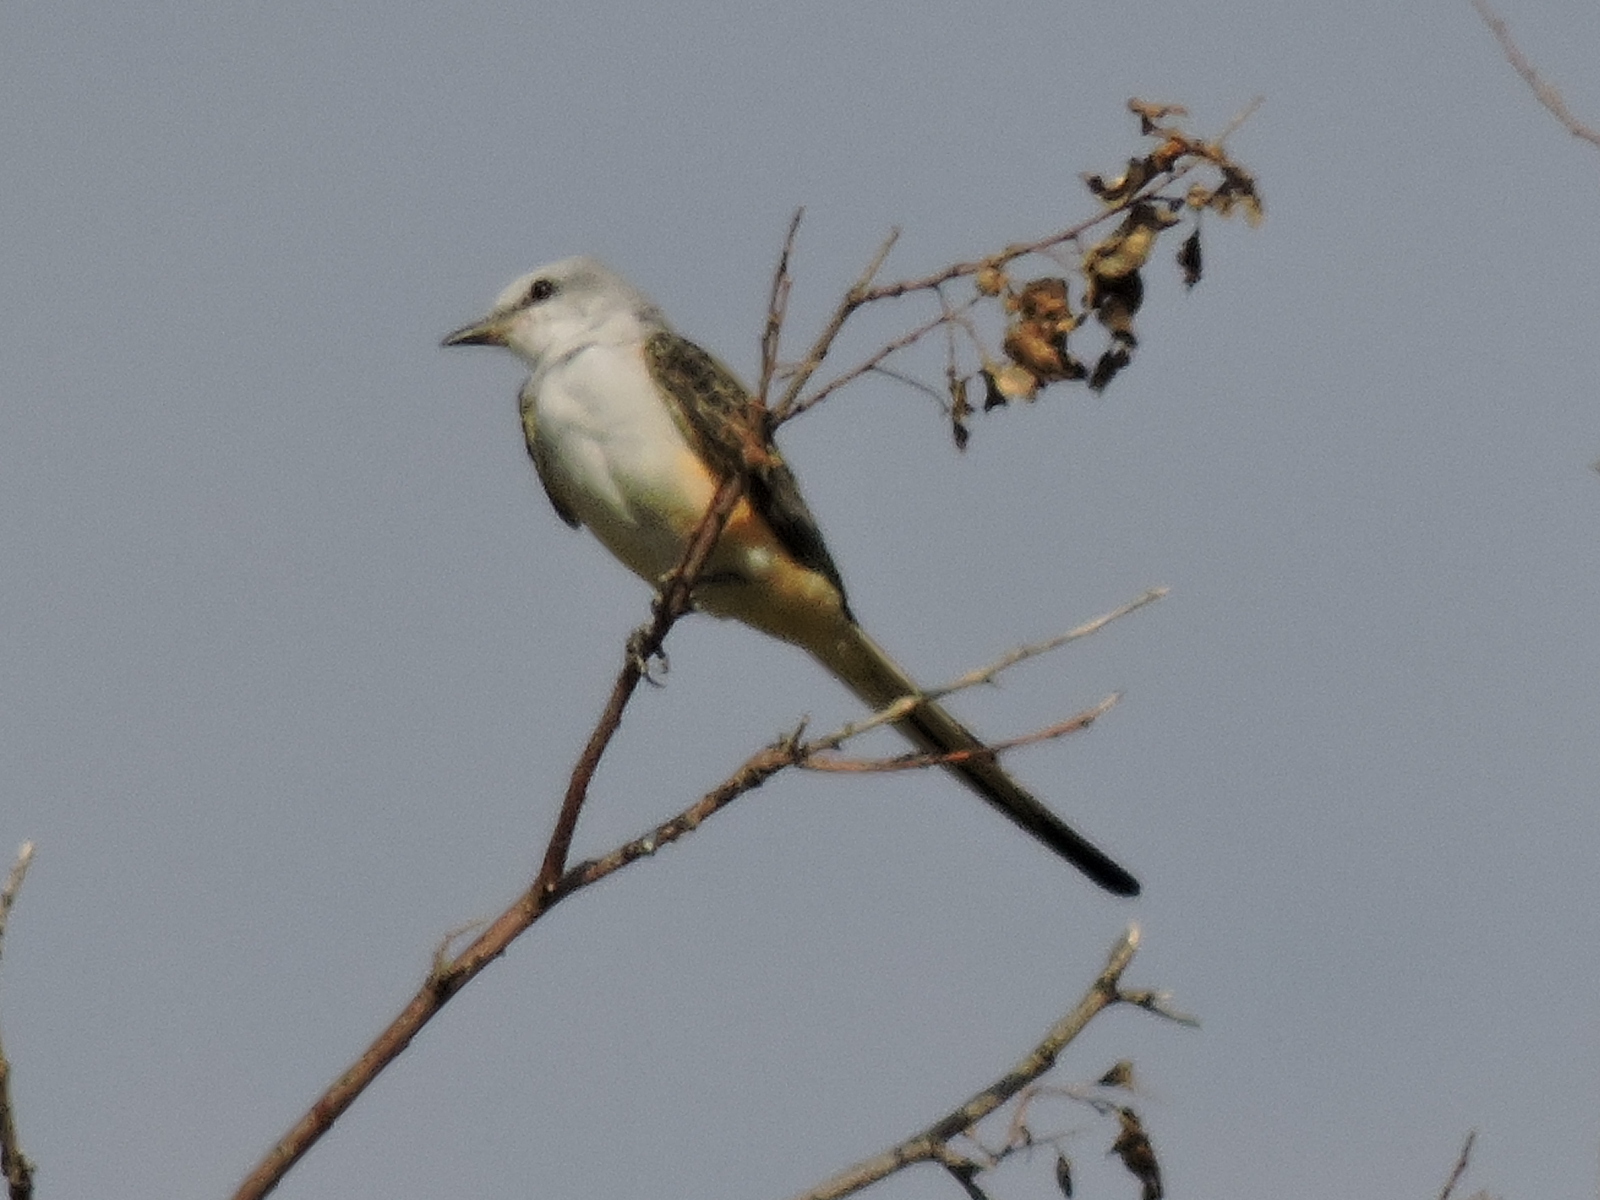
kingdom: Animalia
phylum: Chordata
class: Aves
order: Passeriformes
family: Tyrannidae
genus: Tyrannus
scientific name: Tyrannus forficatus
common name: Scissor-tailed flycatcher
